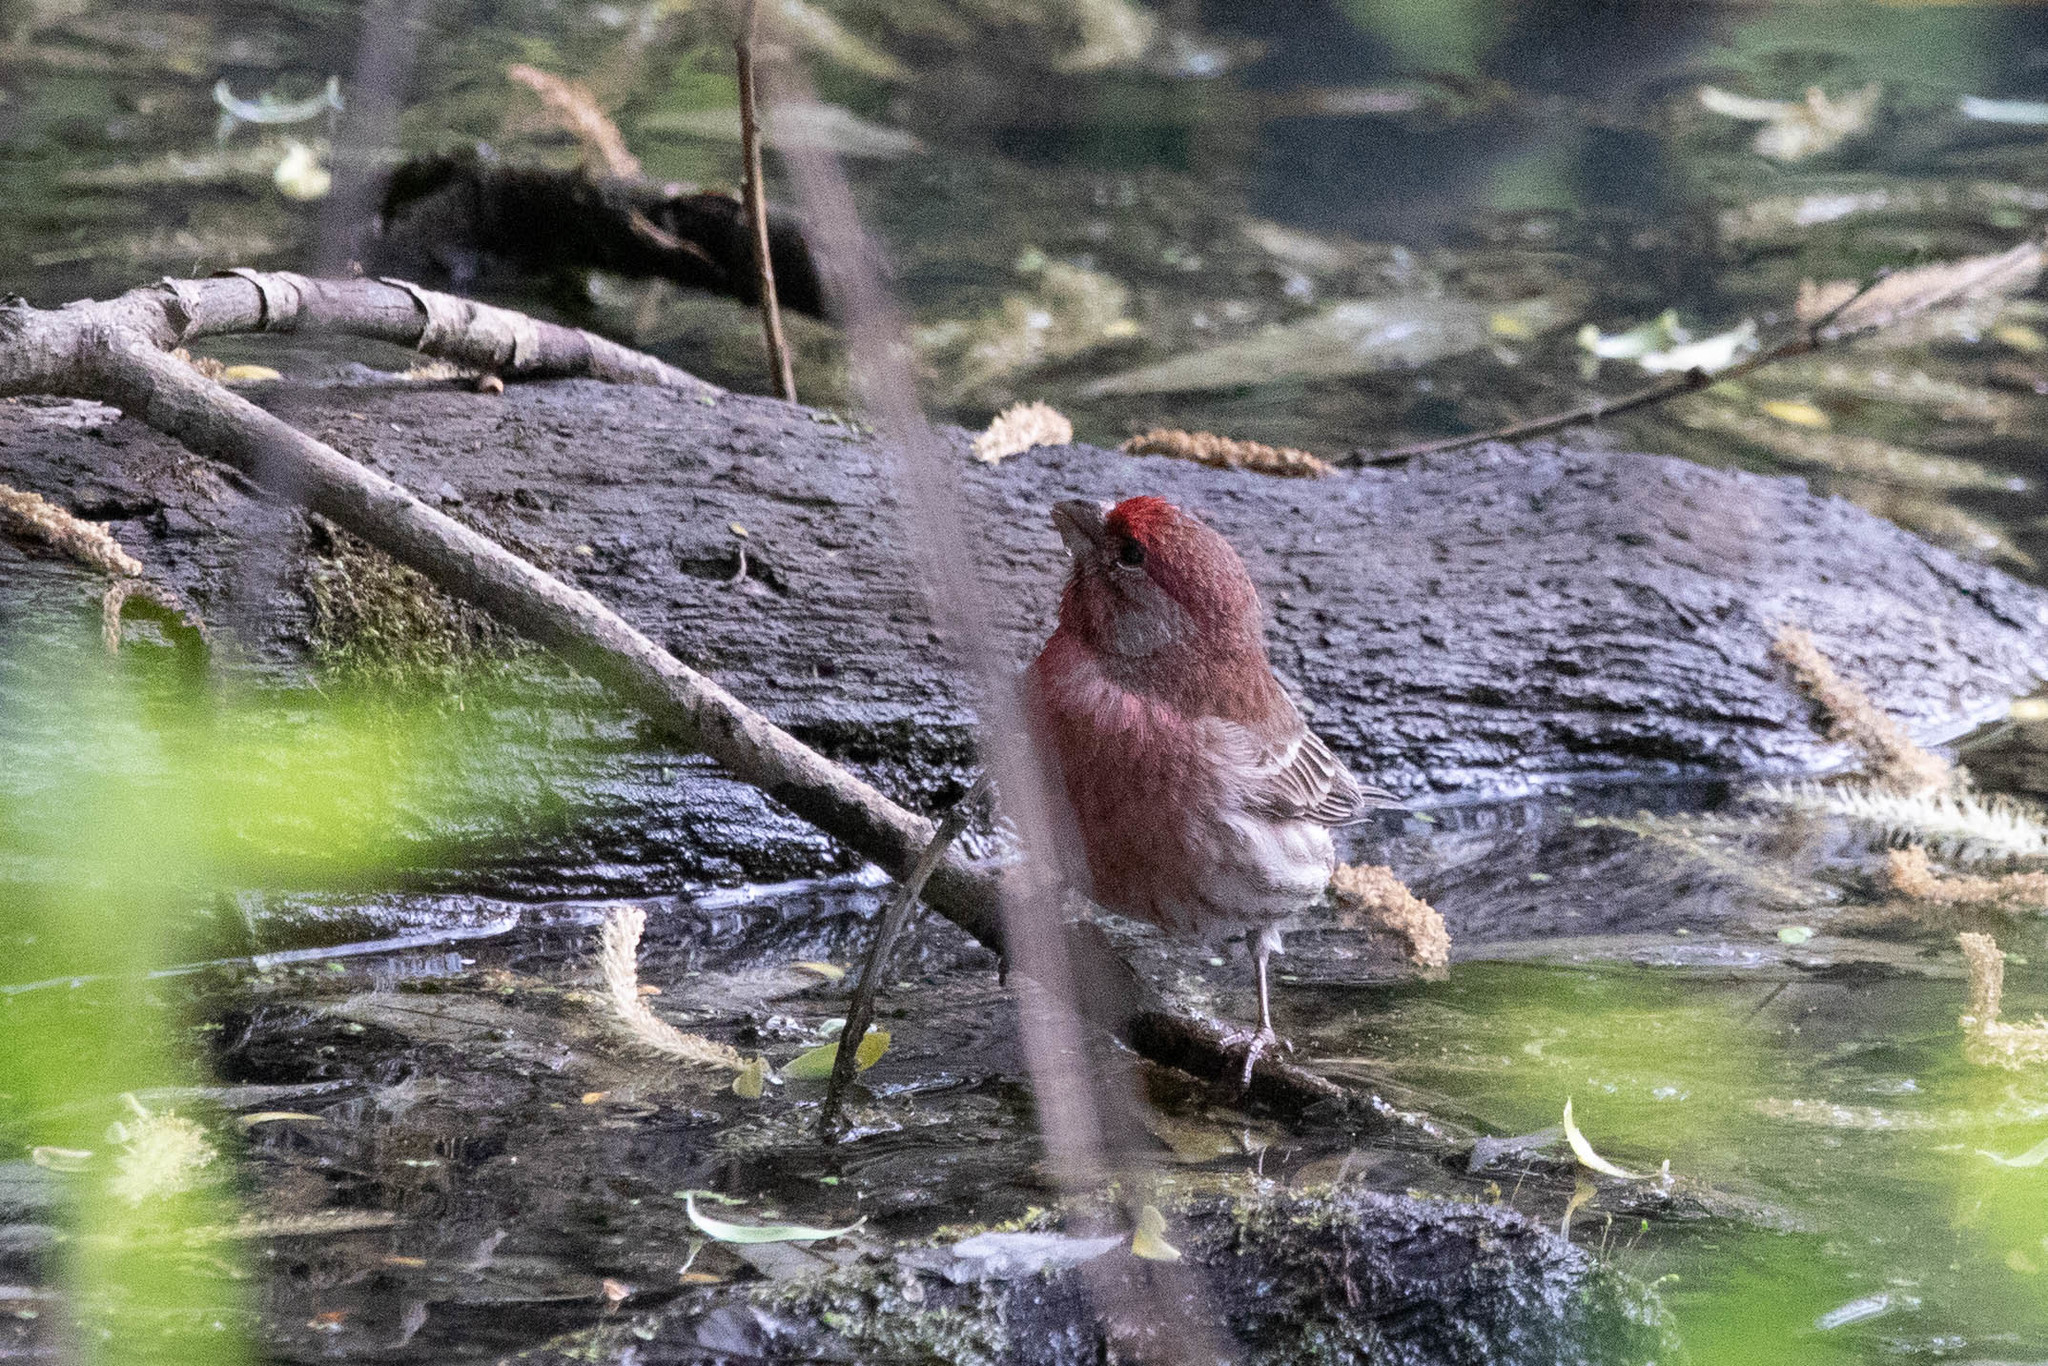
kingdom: Animalia
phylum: Chordata
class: Aves
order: Passeriformes
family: Fringillidae
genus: Haemorhous
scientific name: Haemorhous mexicanus
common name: House finch
